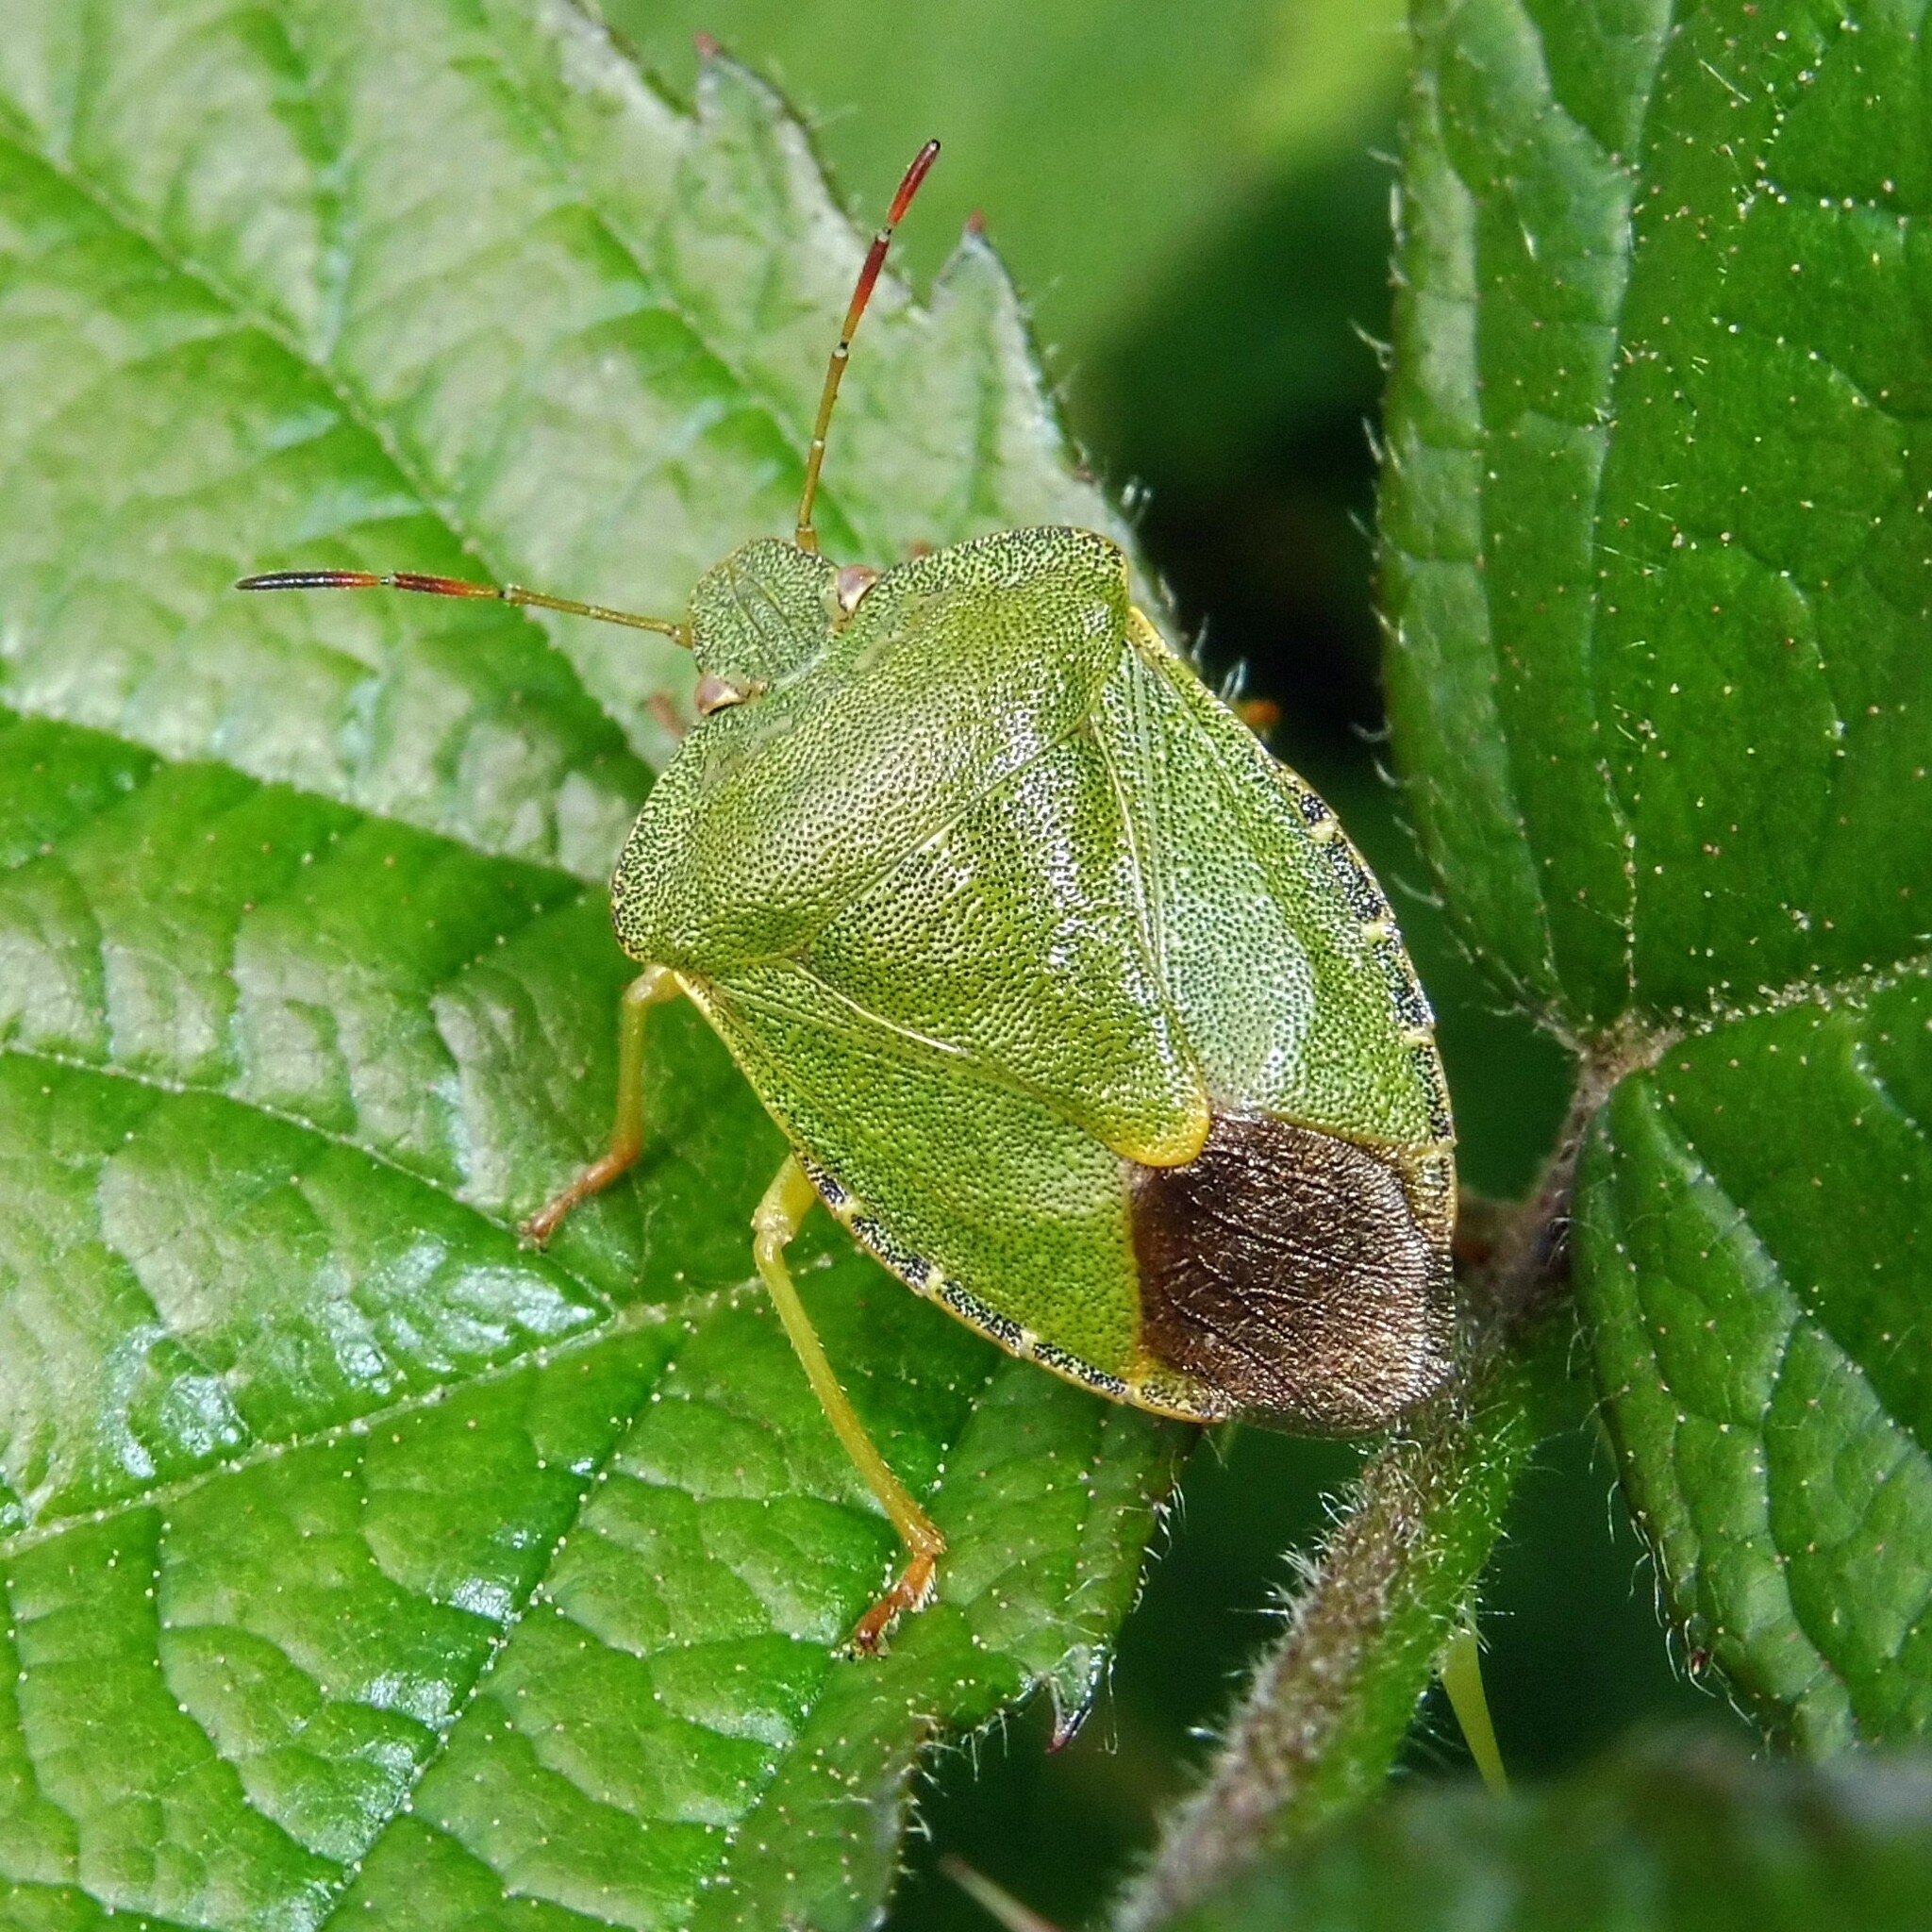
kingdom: Animalia
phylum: Arthropoda
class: Insecta
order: Hemiptera
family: Pentatomidae
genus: Palomena
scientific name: Palomena prasina
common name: Green shieldbug
